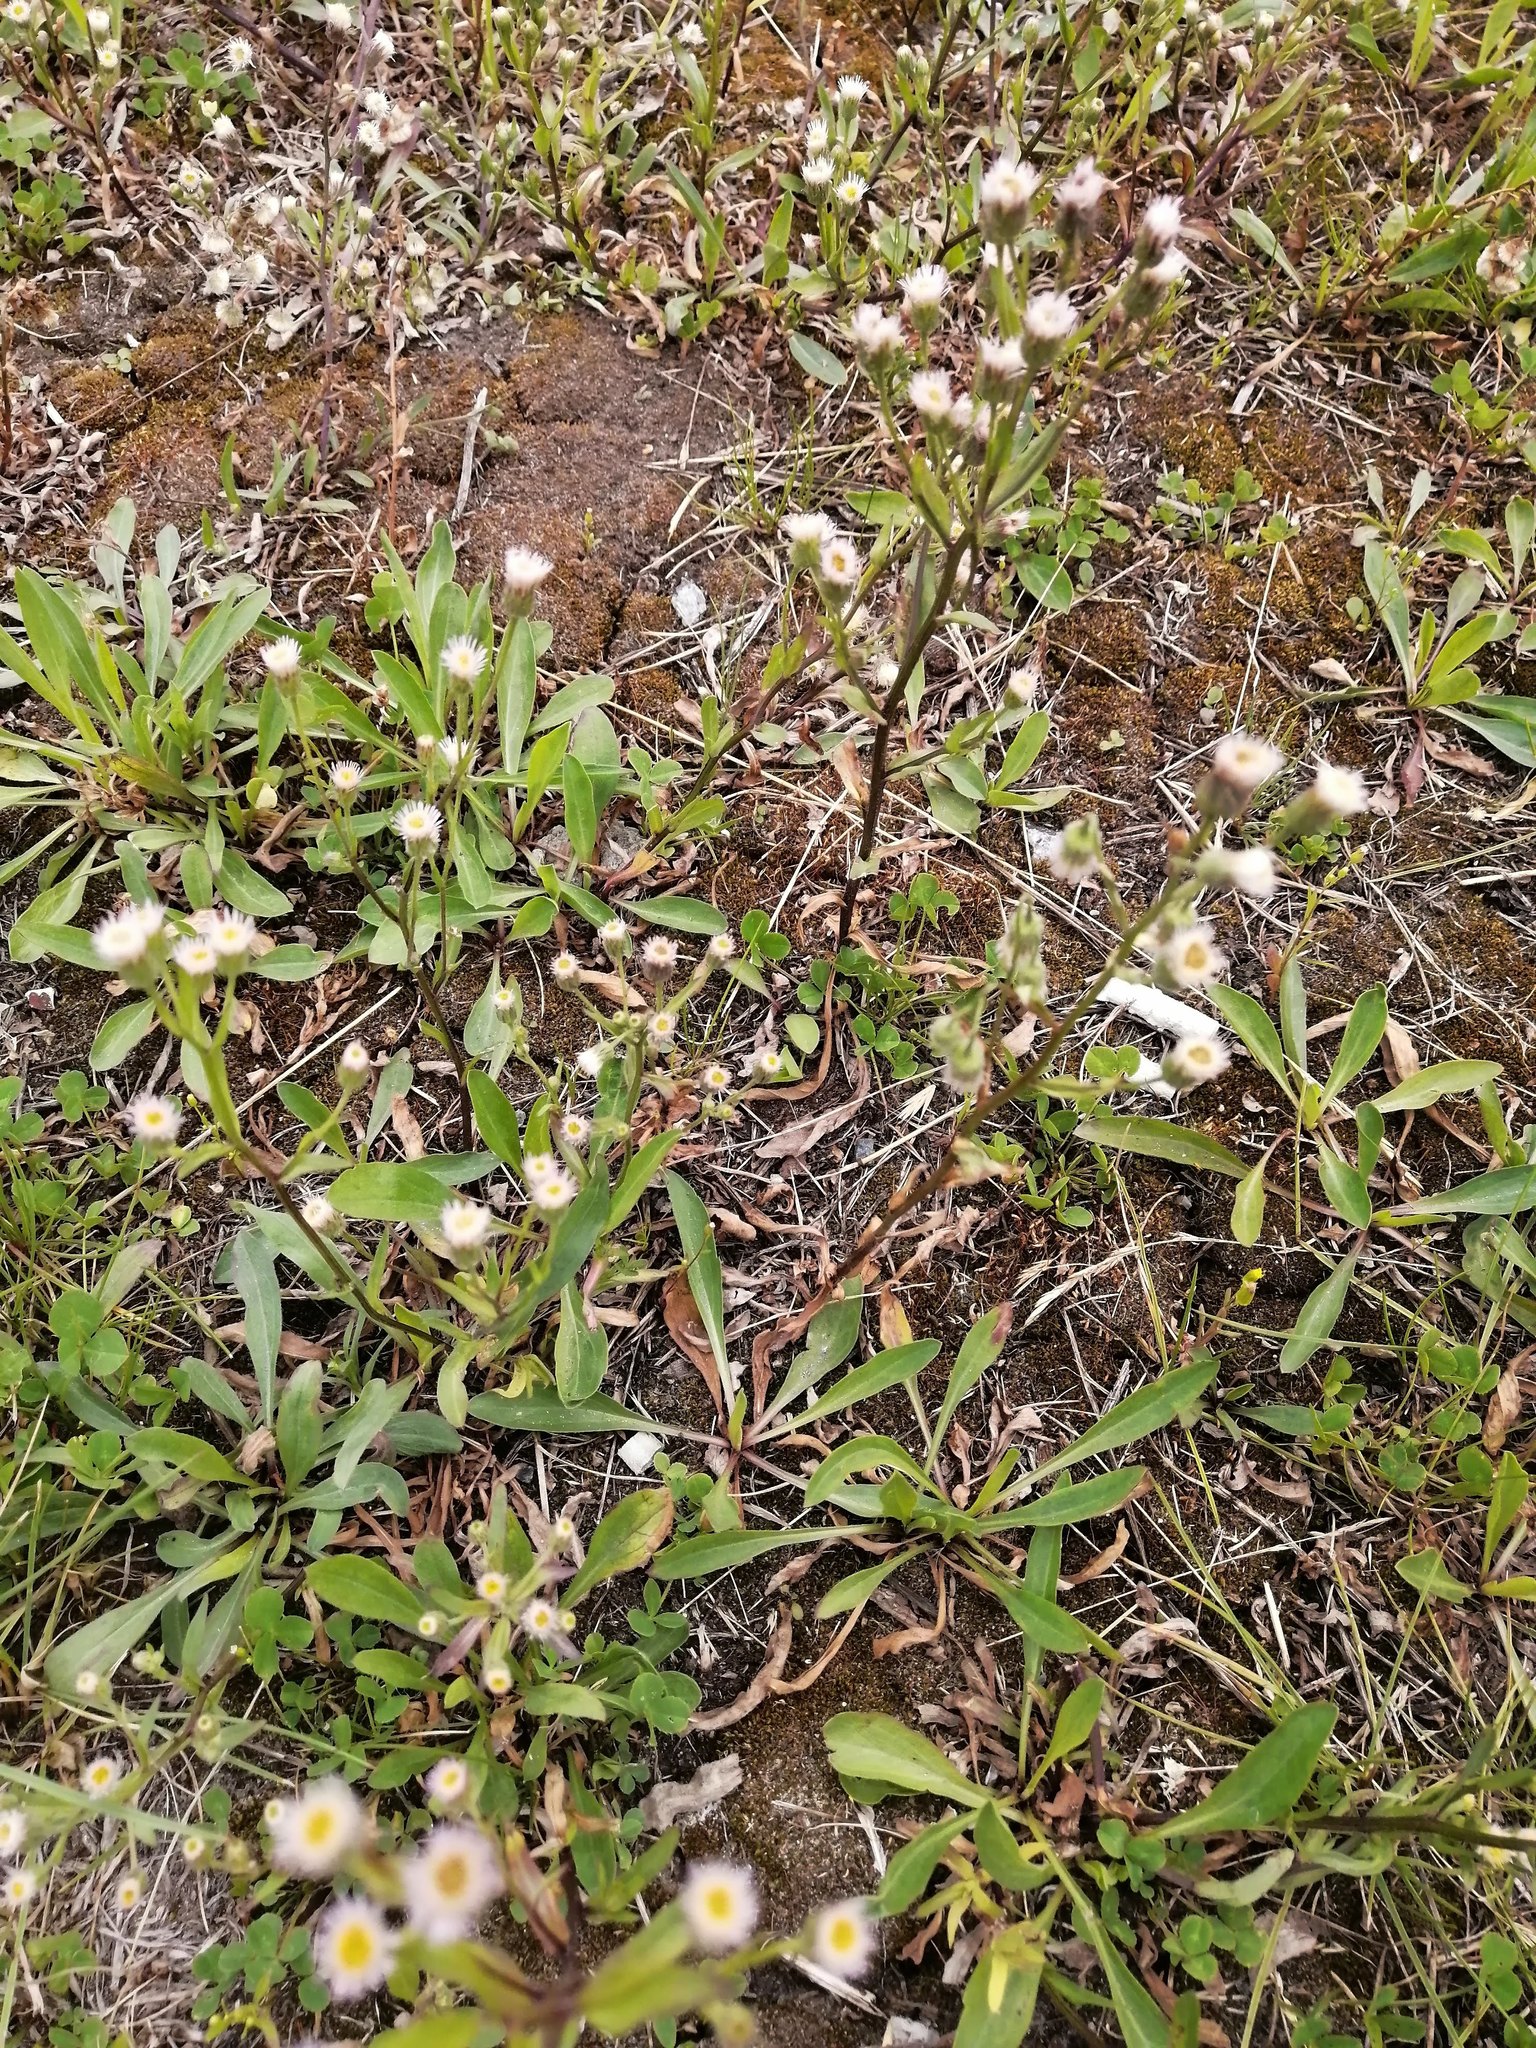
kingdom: Plantae
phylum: Tracheophyta
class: Magnoliopsida
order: Asterales
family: Asteraceae
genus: Erigeron
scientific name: Erigeron acris
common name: Blue fleabane
